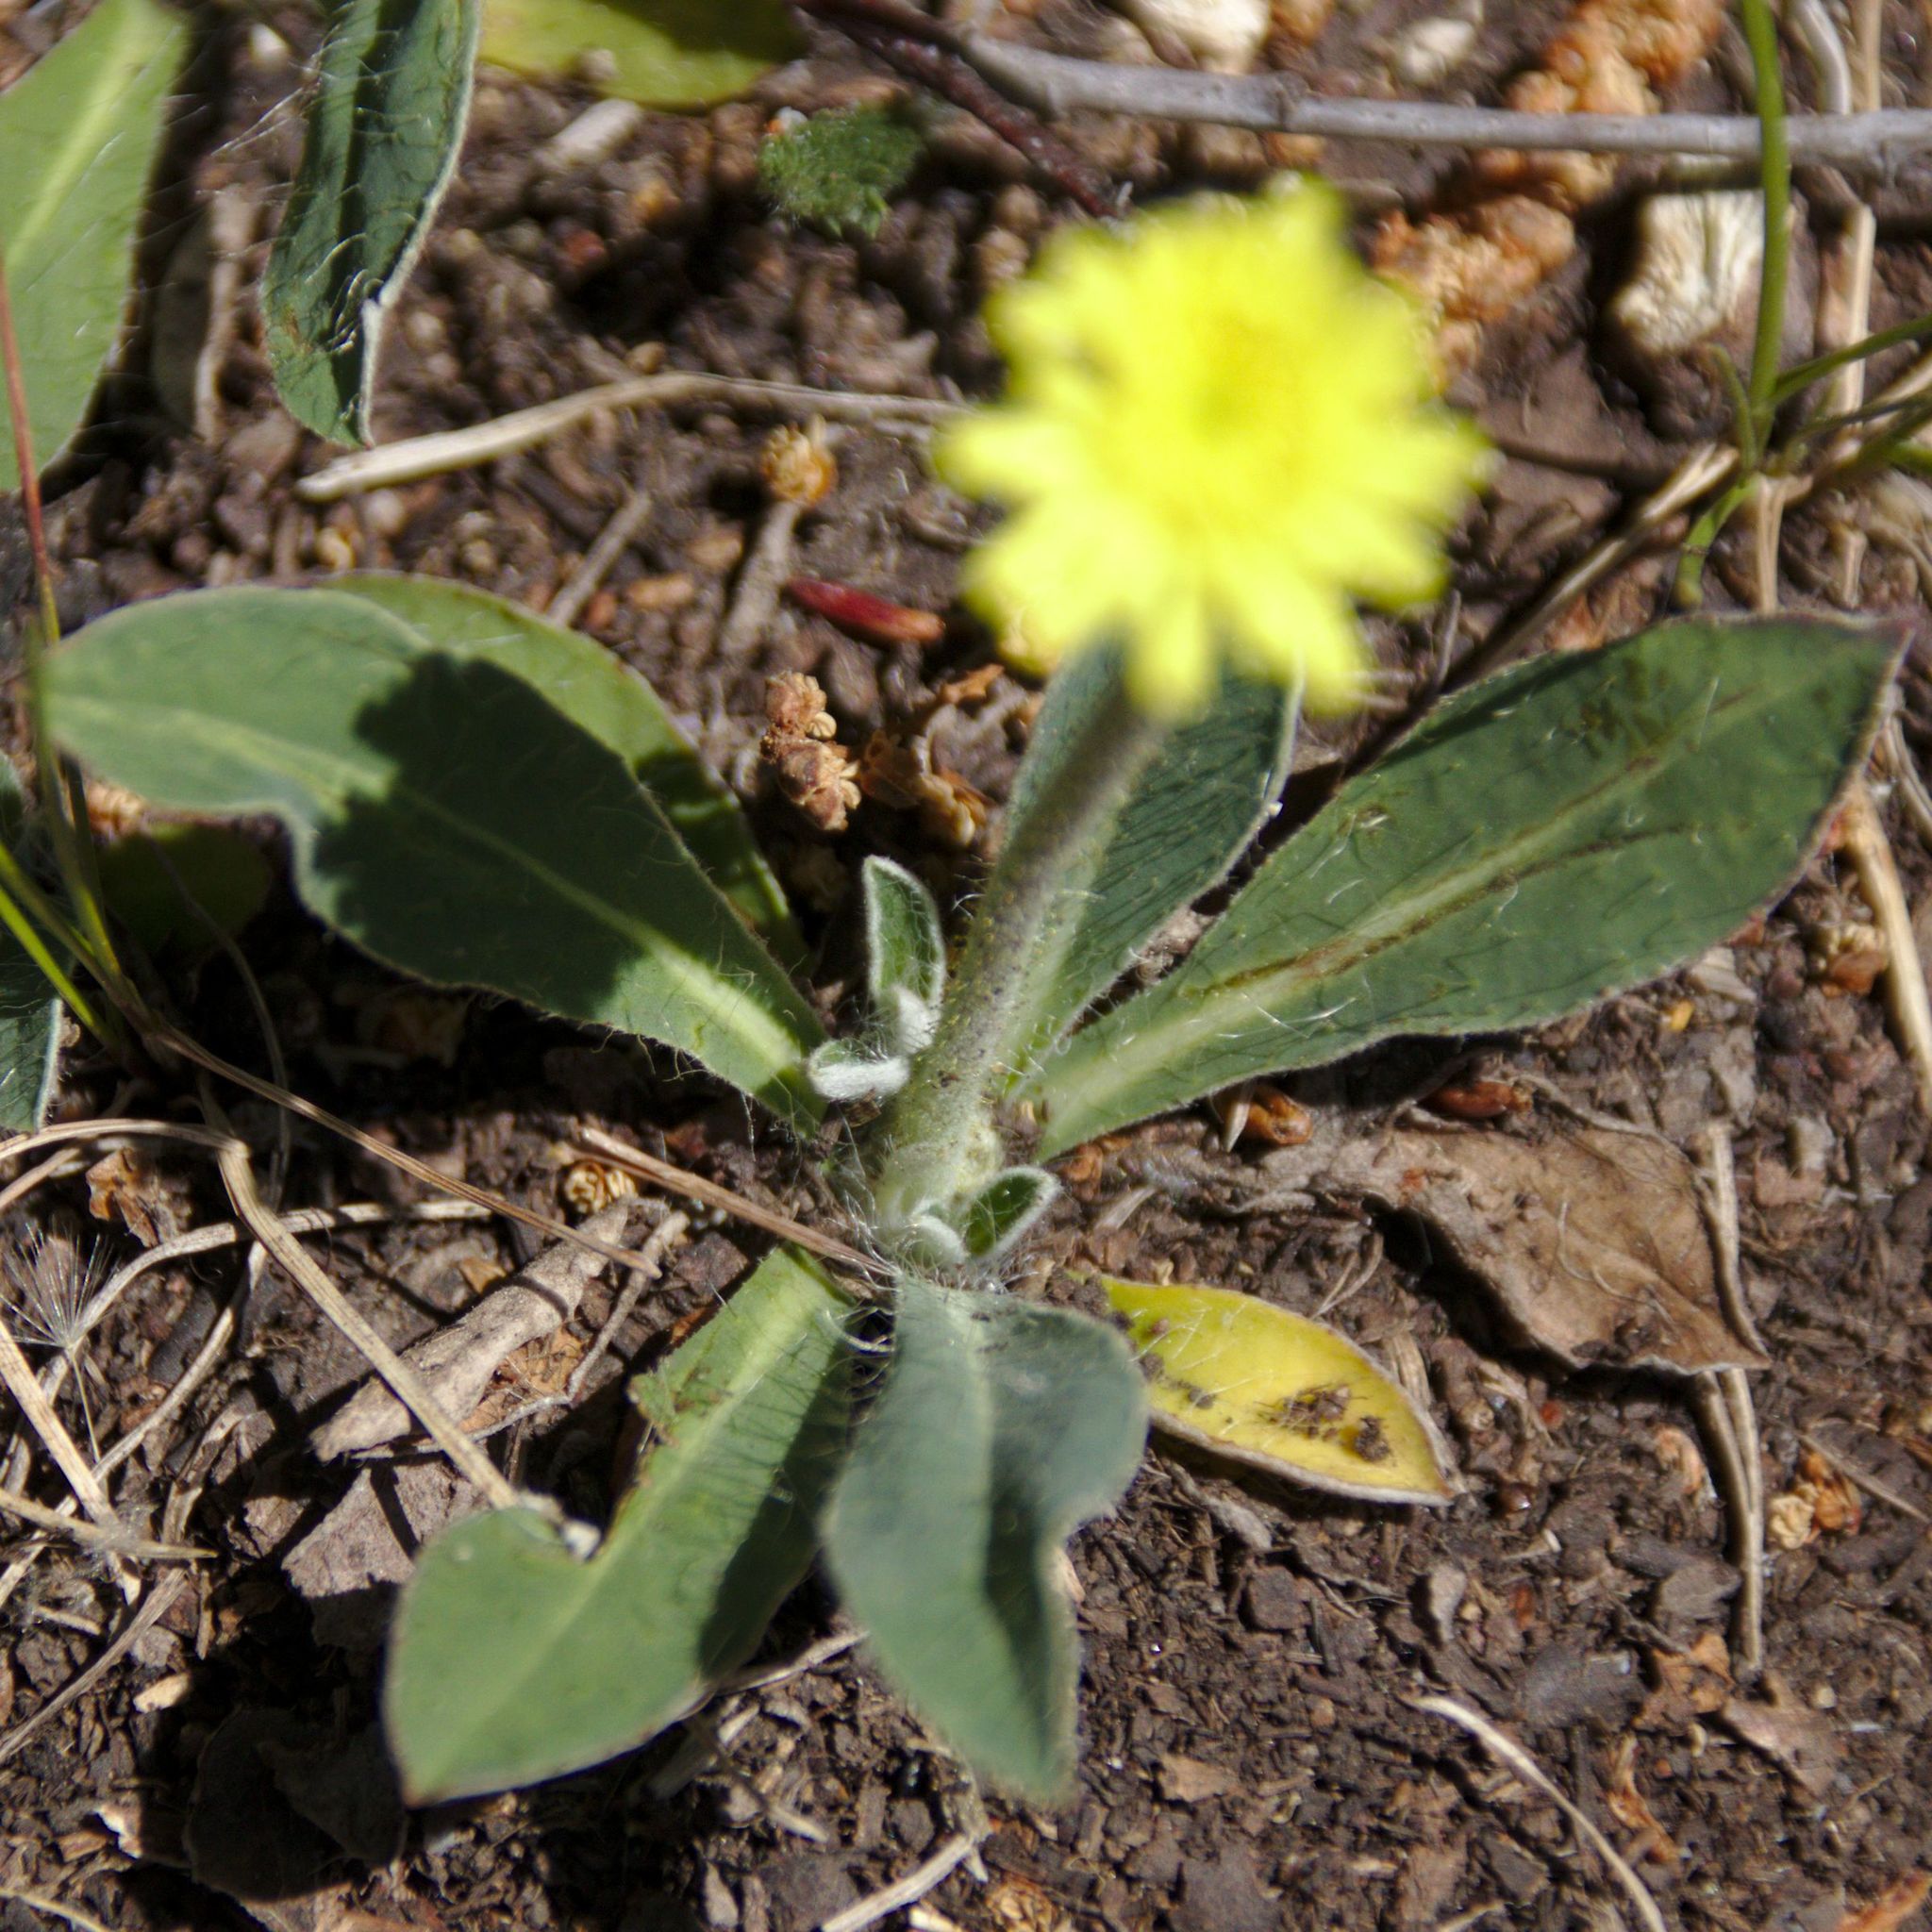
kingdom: Plantae
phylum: Tracheophyta
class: Magnoliopsida
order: Asterales
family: Asteraceae
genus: Pilosella
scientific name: Pilosella officinarum
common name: Mouse-ear hawkweed
